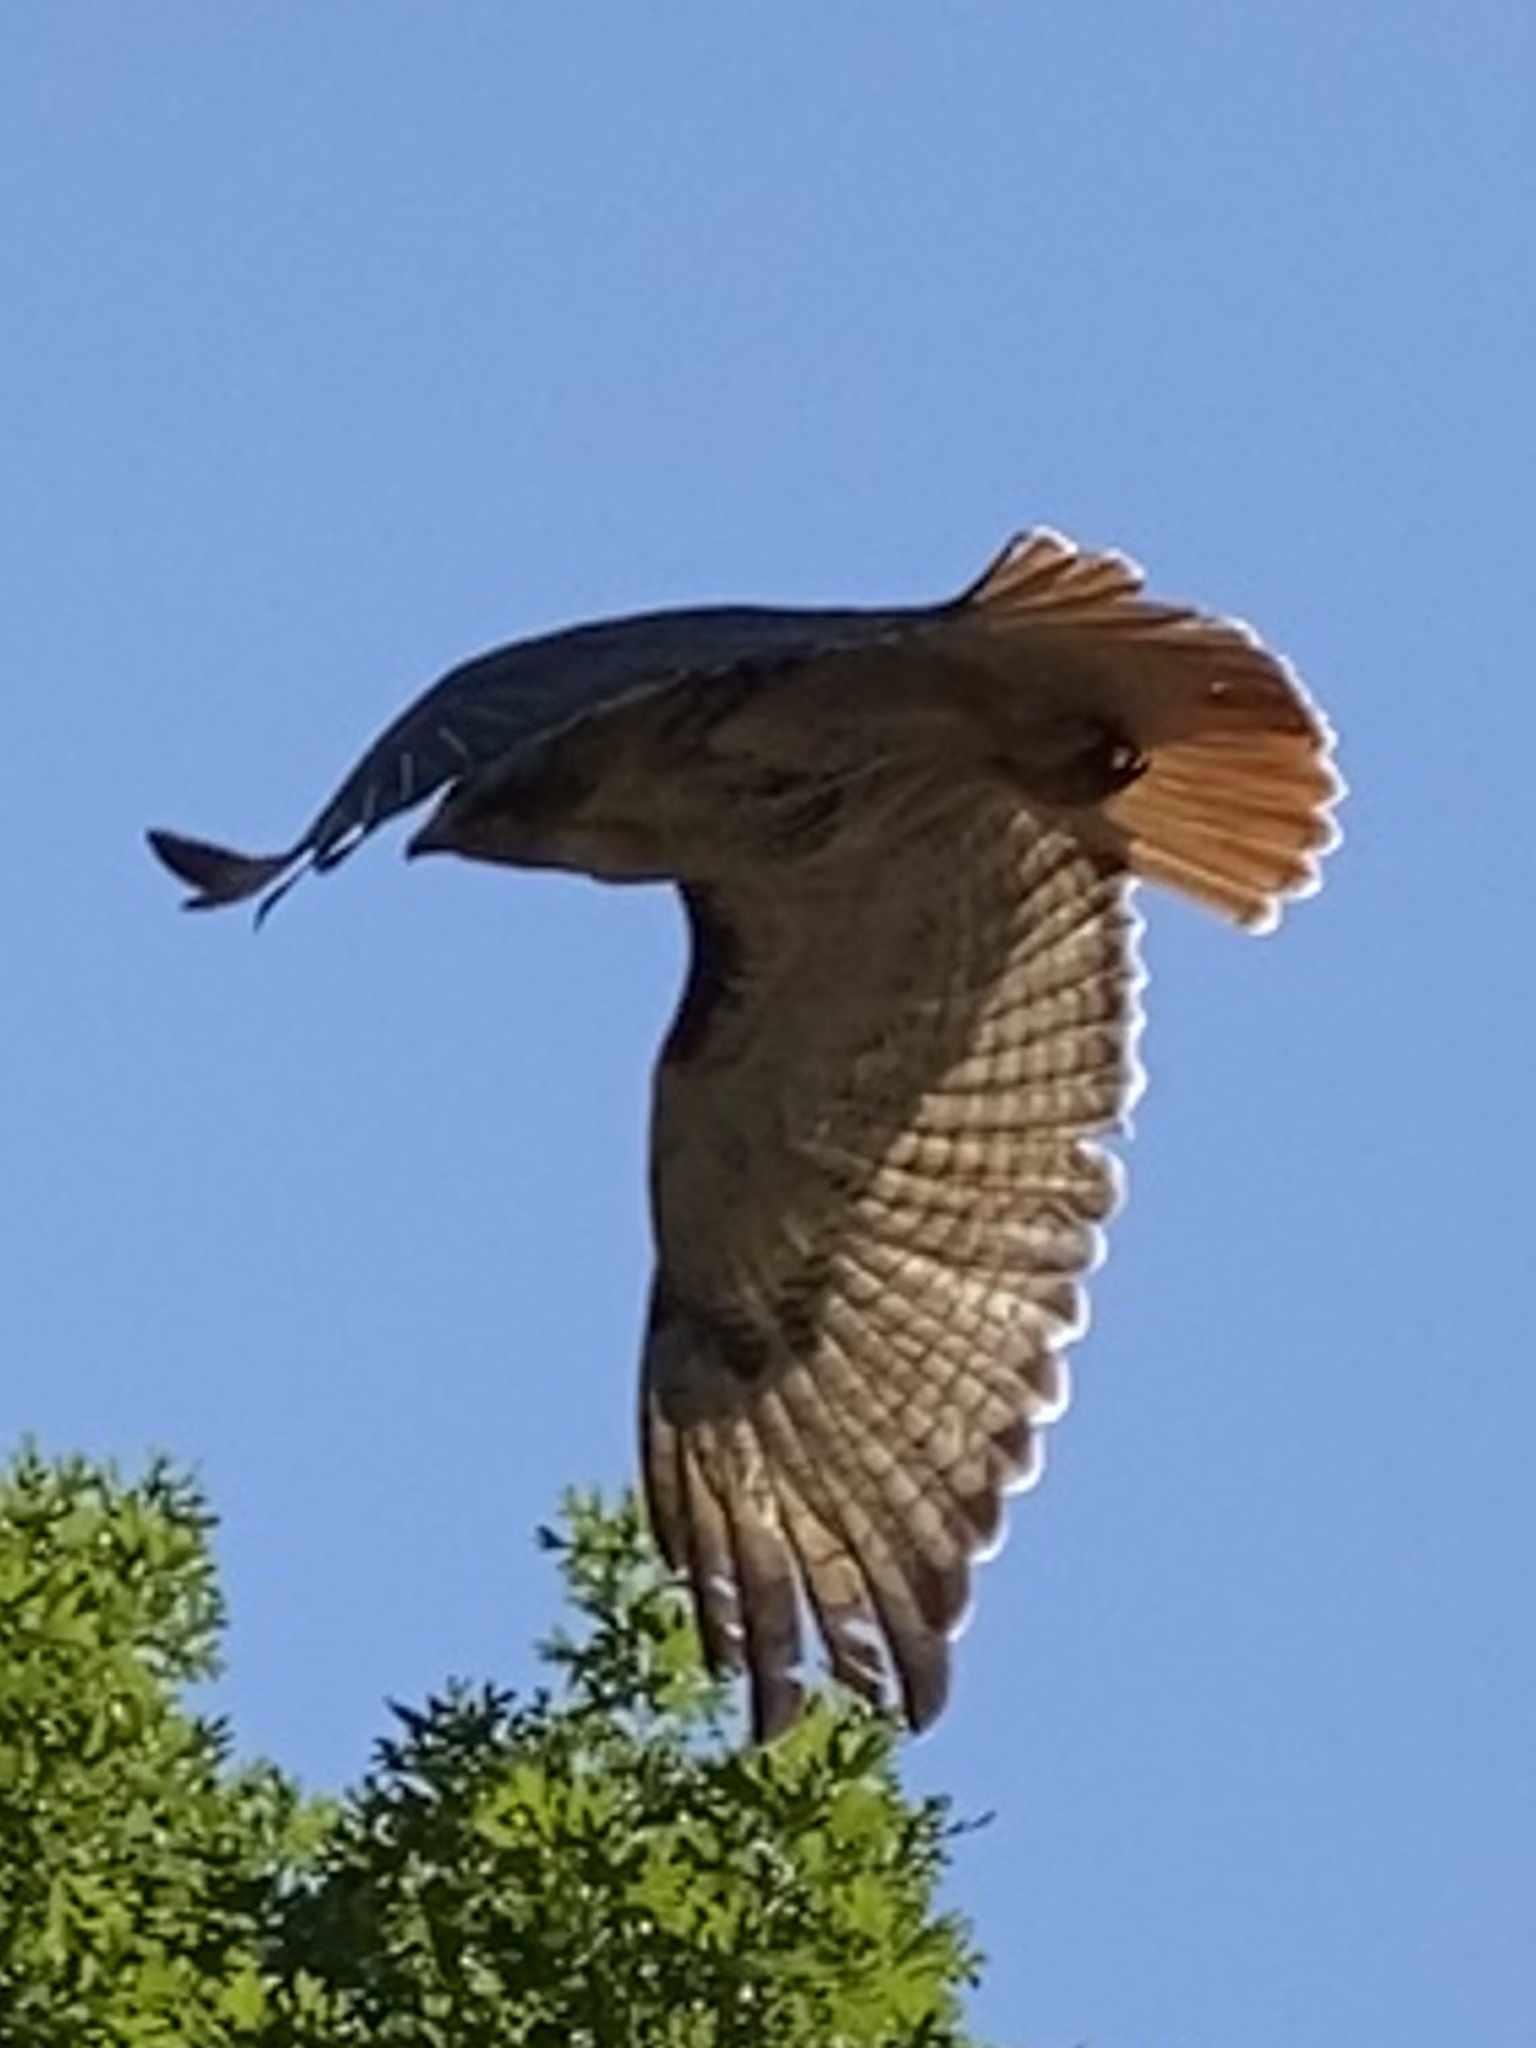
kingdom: Animalia
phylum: Chordata
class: Aves
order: Accipitriformes
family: Accipitridae
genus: Buteo
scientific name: Buteo jamaicensis
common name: Red-tailed hawk
